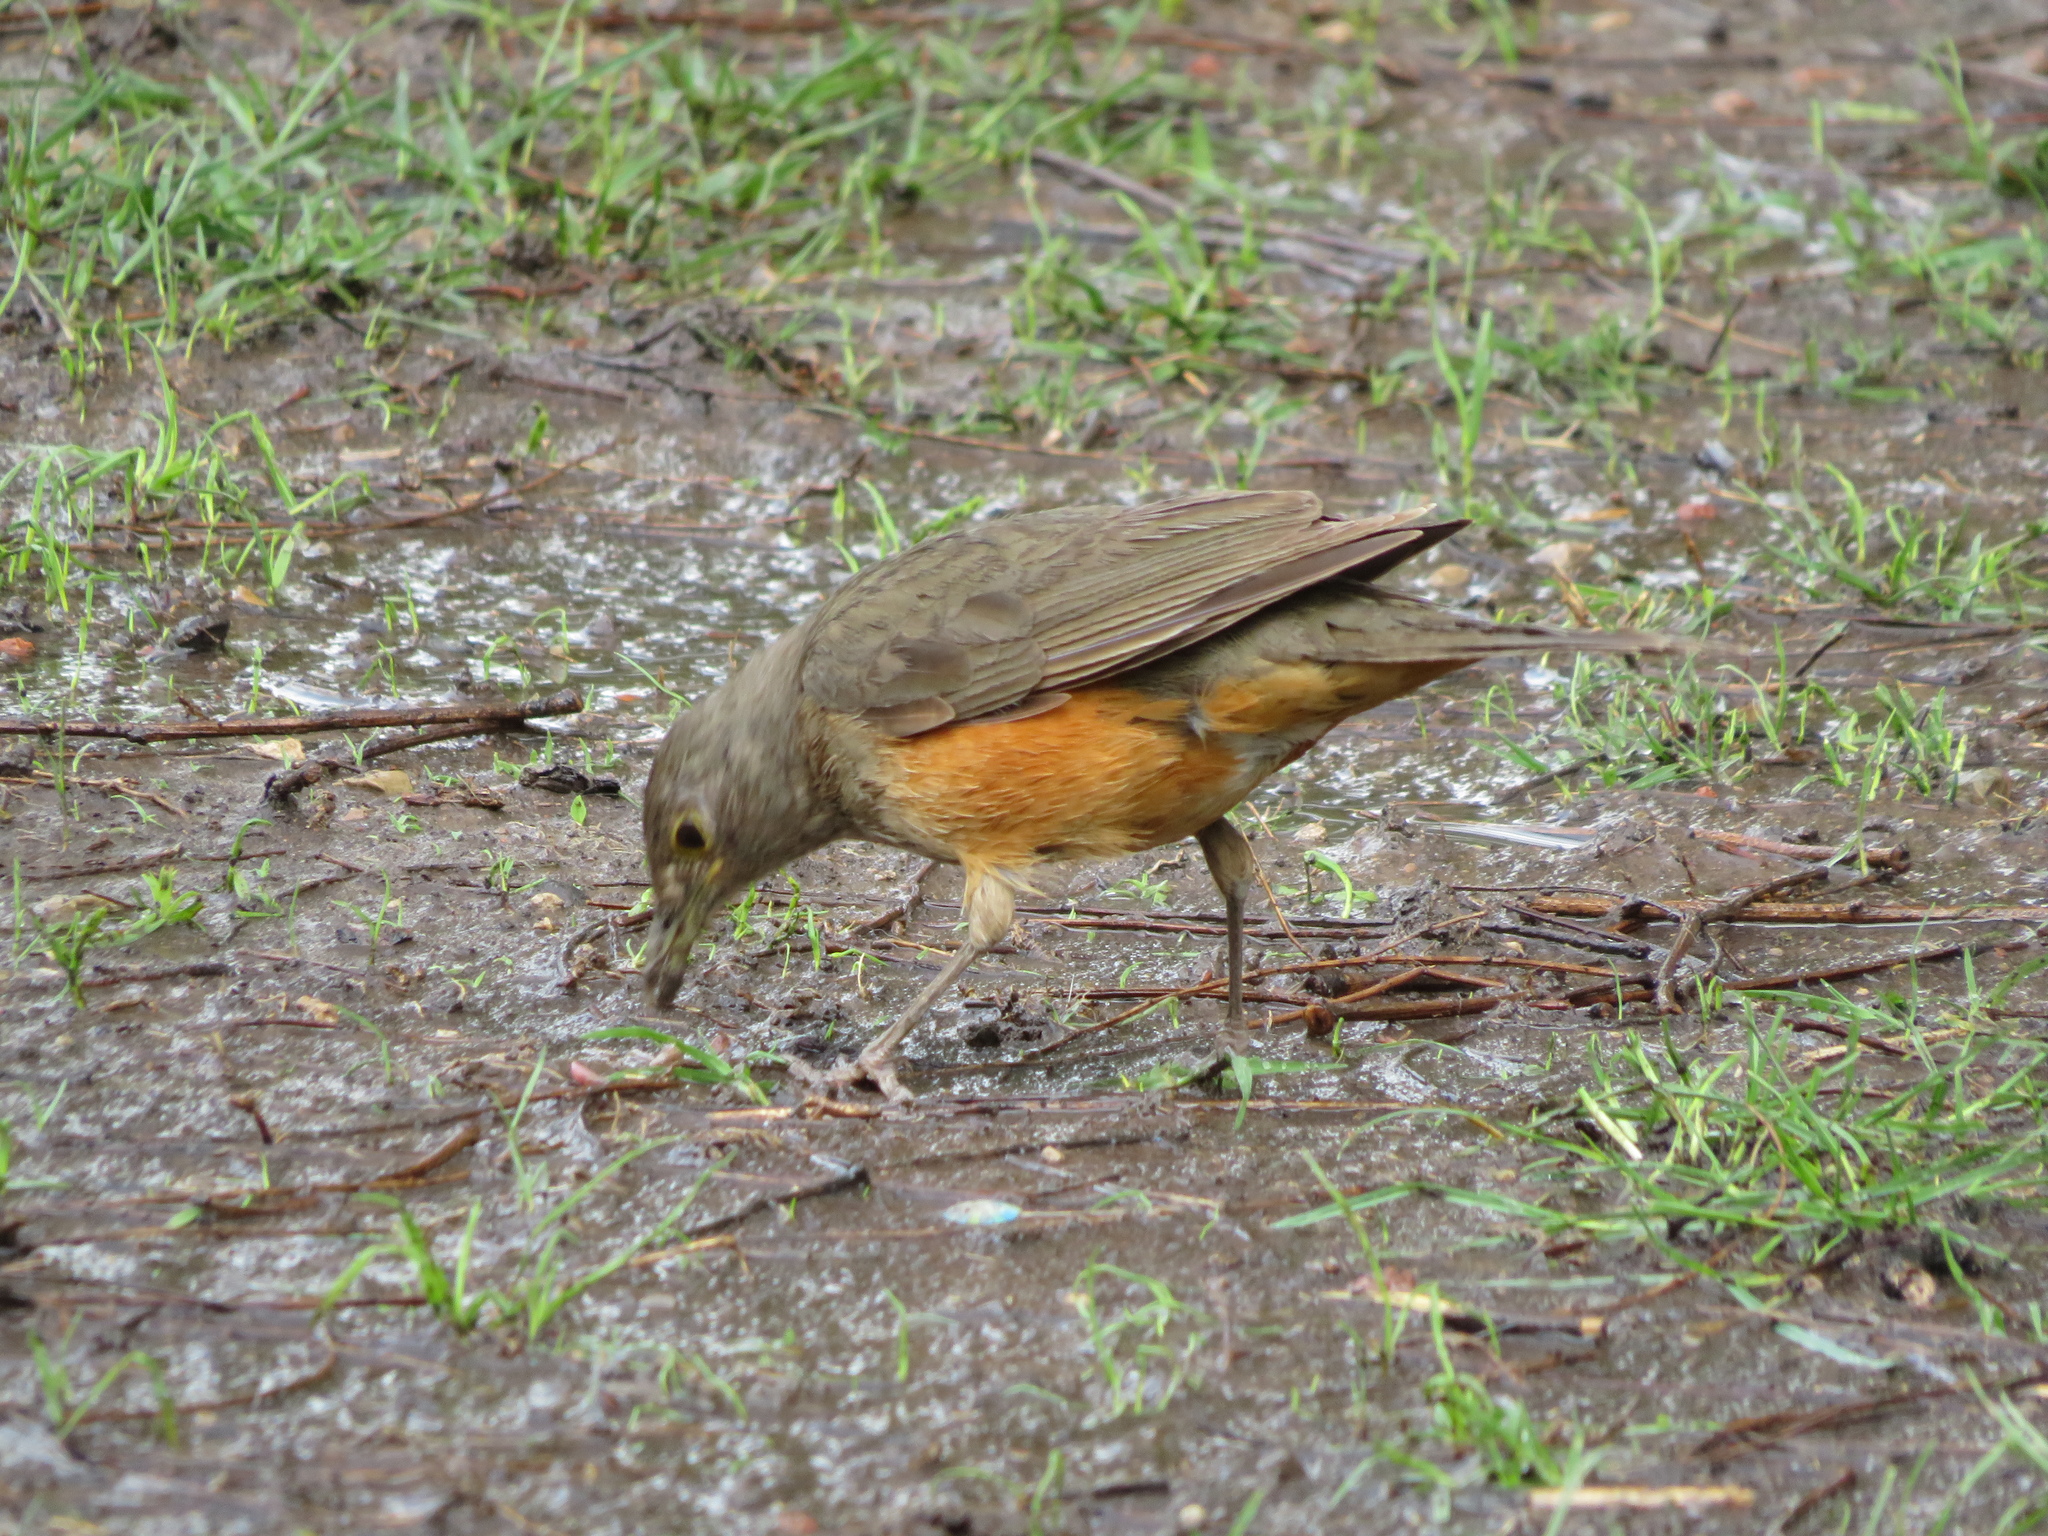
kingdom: Animalia
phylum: Chordata
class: Aves
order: Passeriformes
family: Turdidae
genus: Turdus
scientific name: Turdus rufiventris
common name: Rufous-bellied thrush
